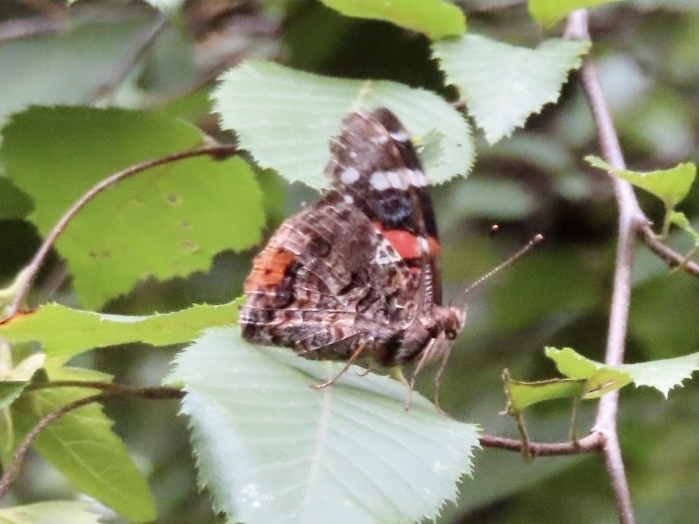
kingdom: Animalia
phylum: Arthropoda
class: Insecta
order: Lepidoptera
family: Nymphalidae
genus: Vanessa
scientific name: Vanessa atalanta
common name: Red admiral
